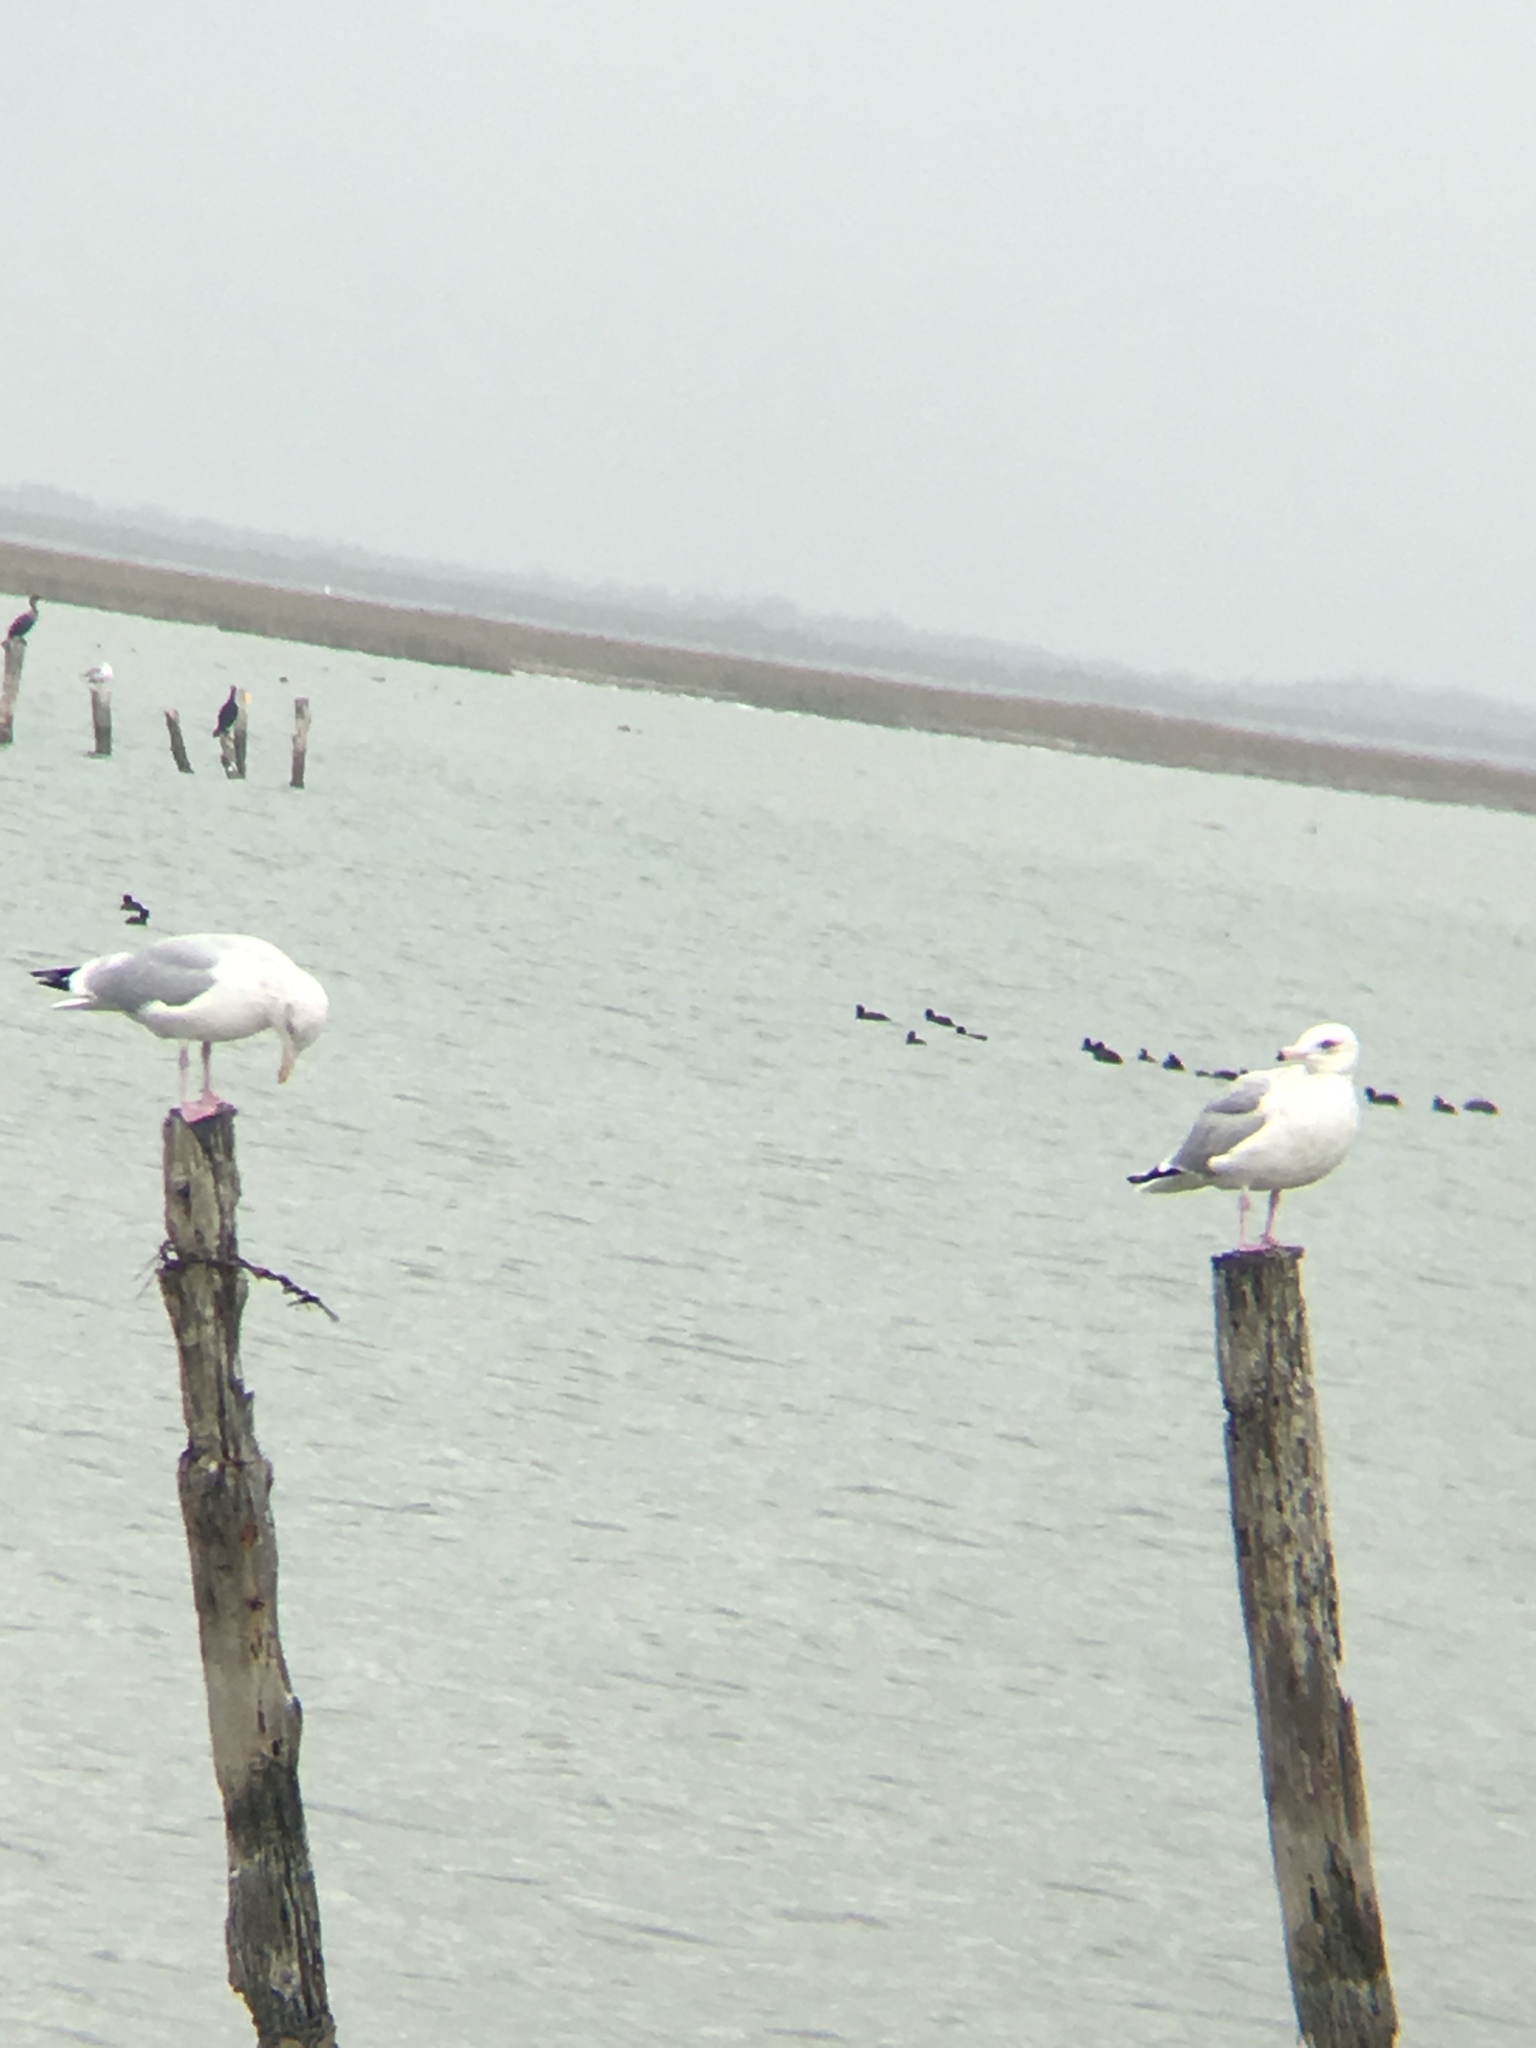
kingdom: Animalia
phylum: Chordata
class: Aves
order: Charadriiformes
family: Laridae
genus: Larus
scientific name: Larus argentatus
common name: Herring gull
